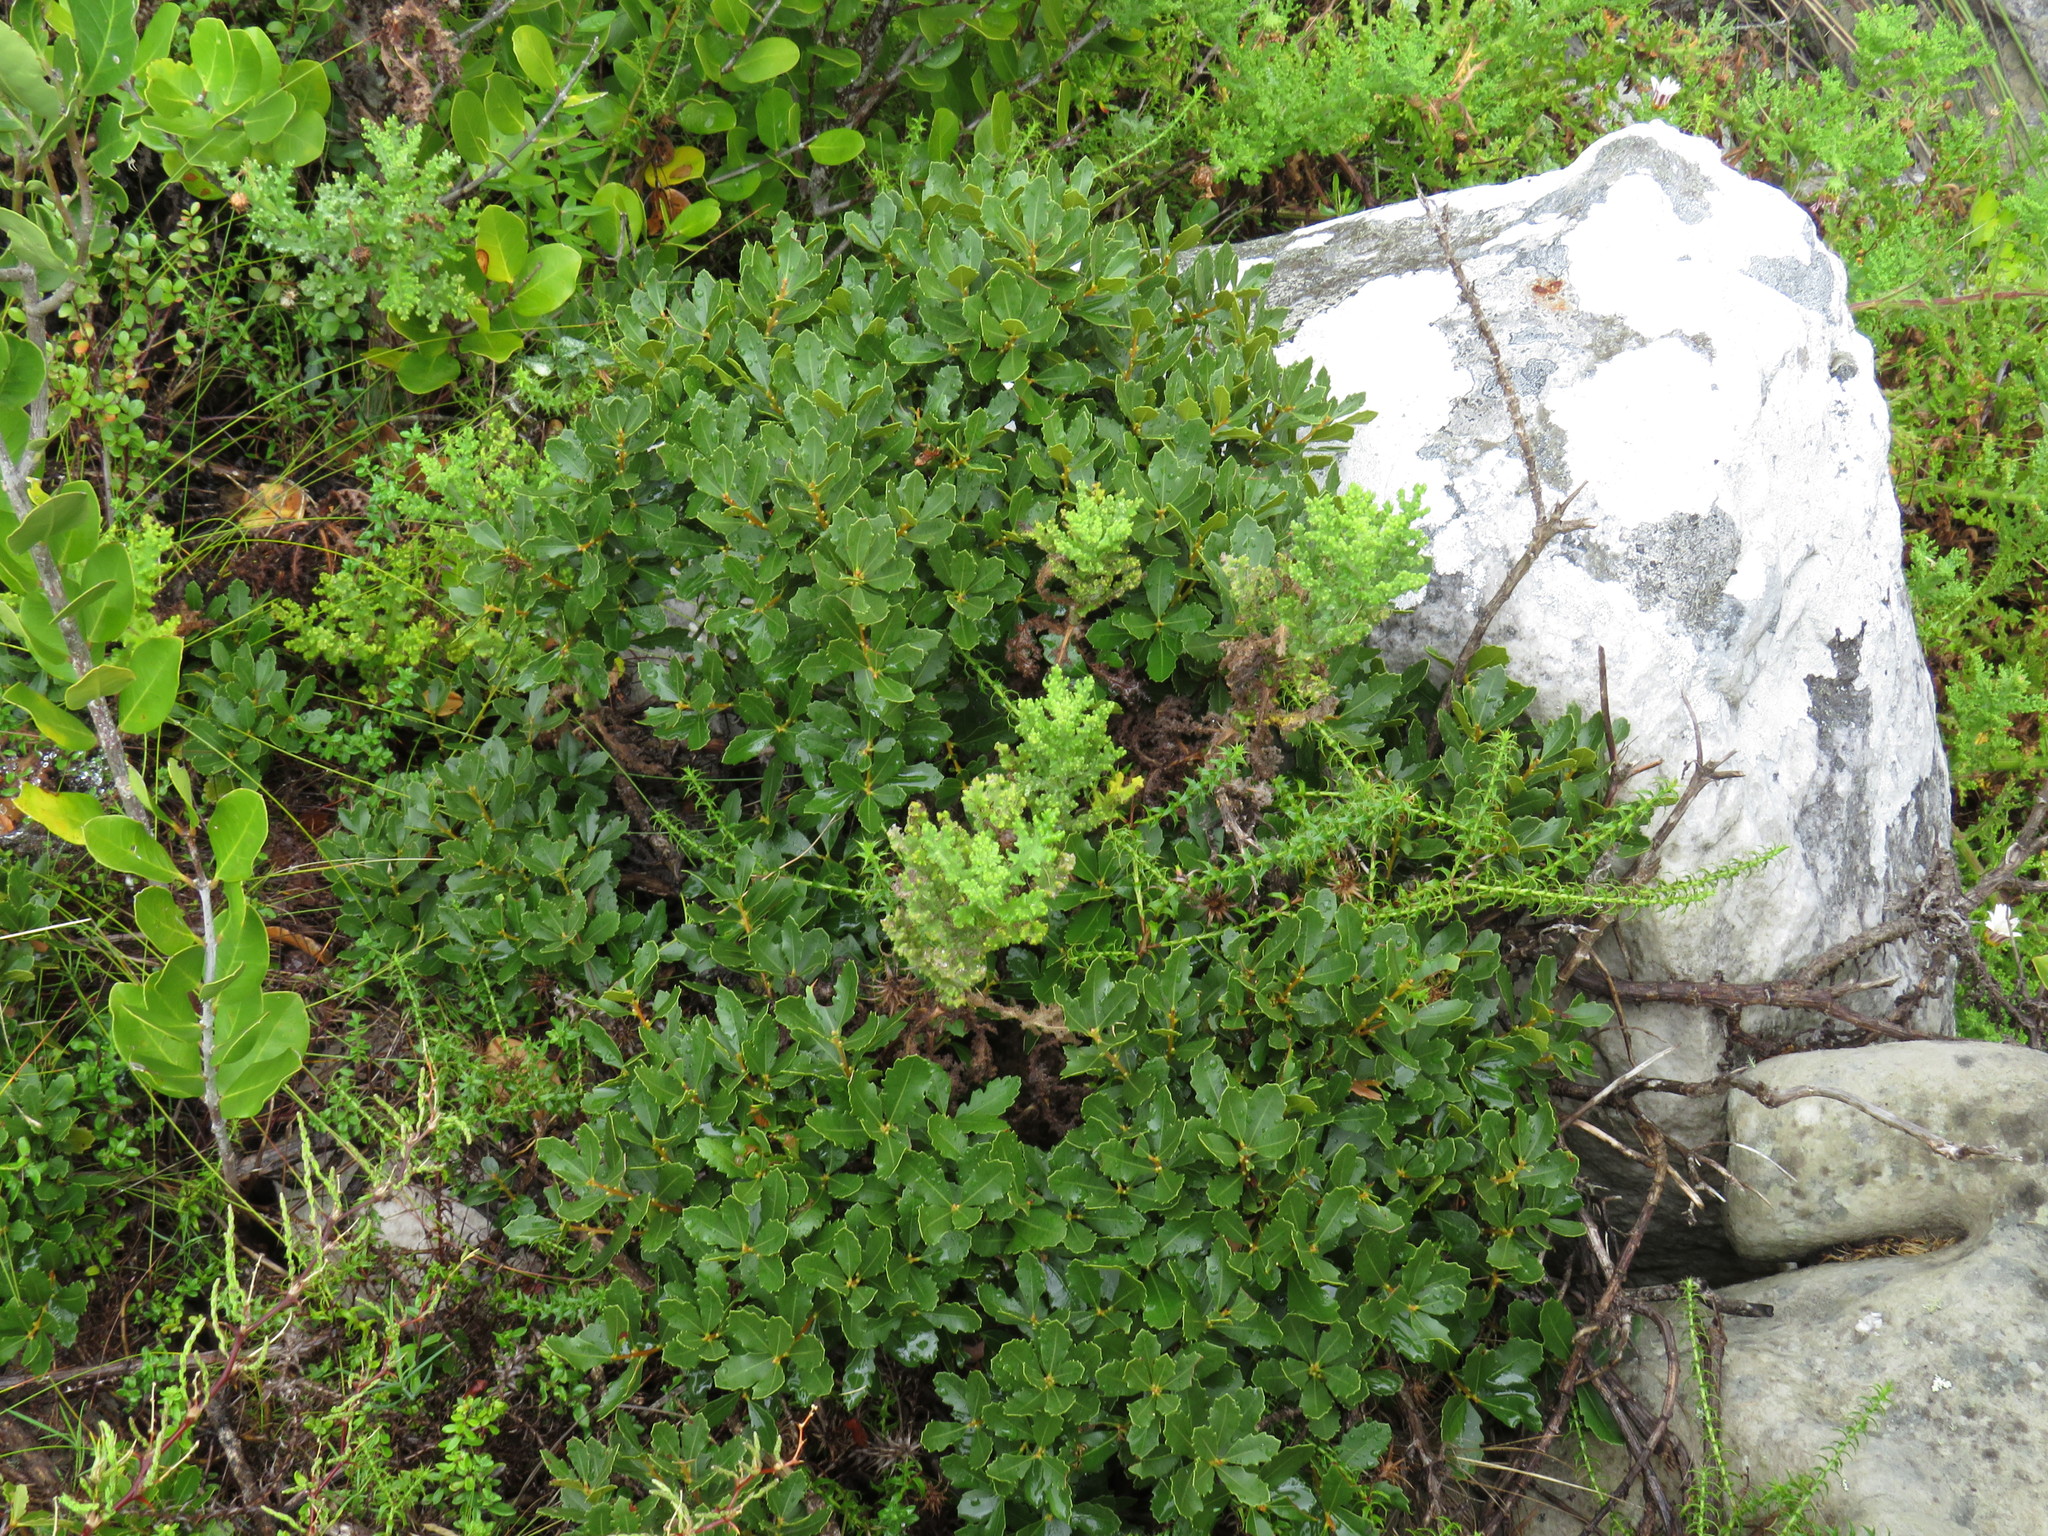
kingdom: Plantae
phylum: Tracheophyta
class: Magnoliopsida
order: Fagales
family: Myricaceae
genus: Morella
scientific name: Morella diversifolia
